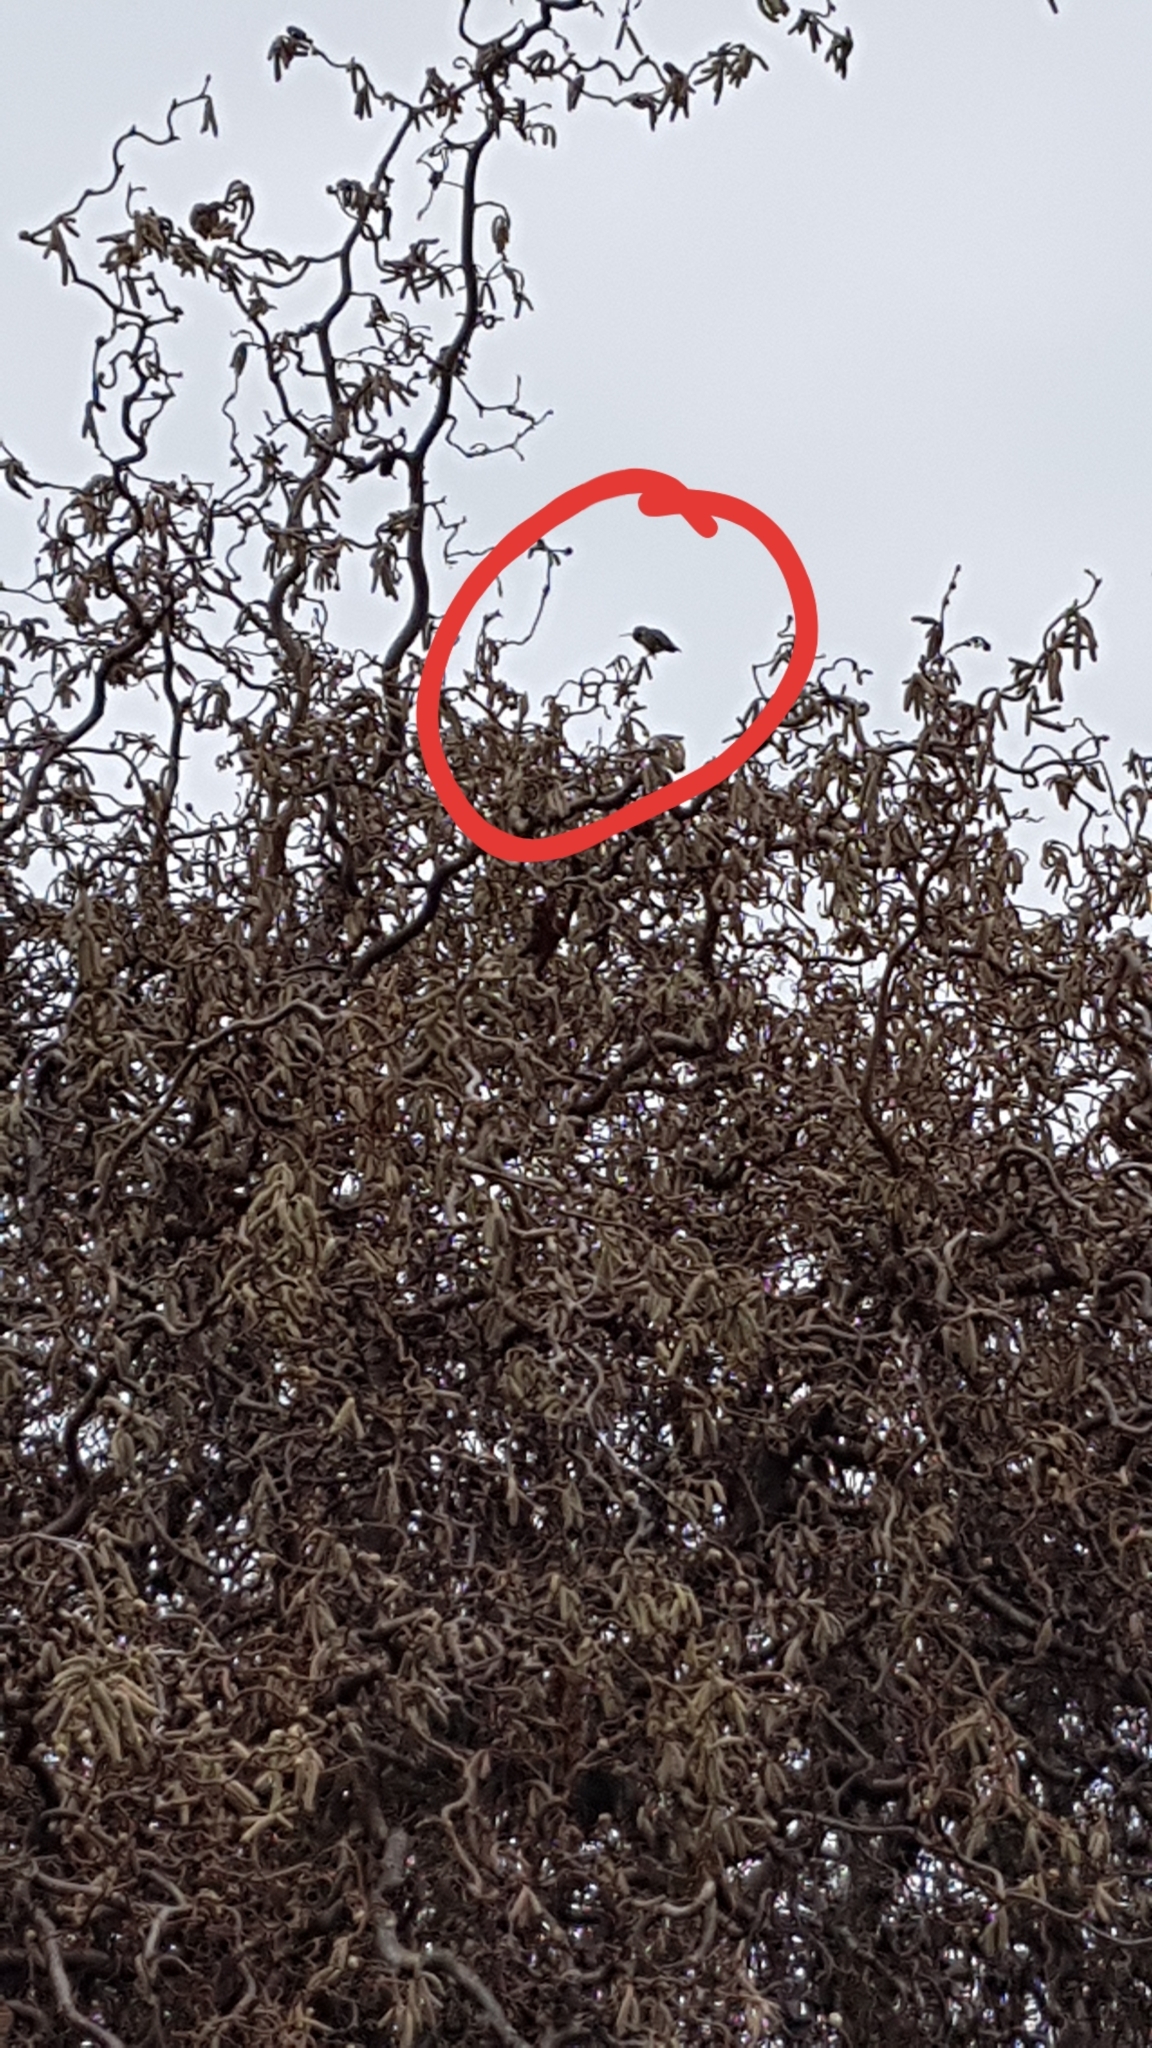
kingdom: Animalia
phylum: Chordata
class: Aves
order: Apodiformes
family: Trochilidae
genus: Calypte
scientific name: Calypte anna
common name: Anna's hummingbird
